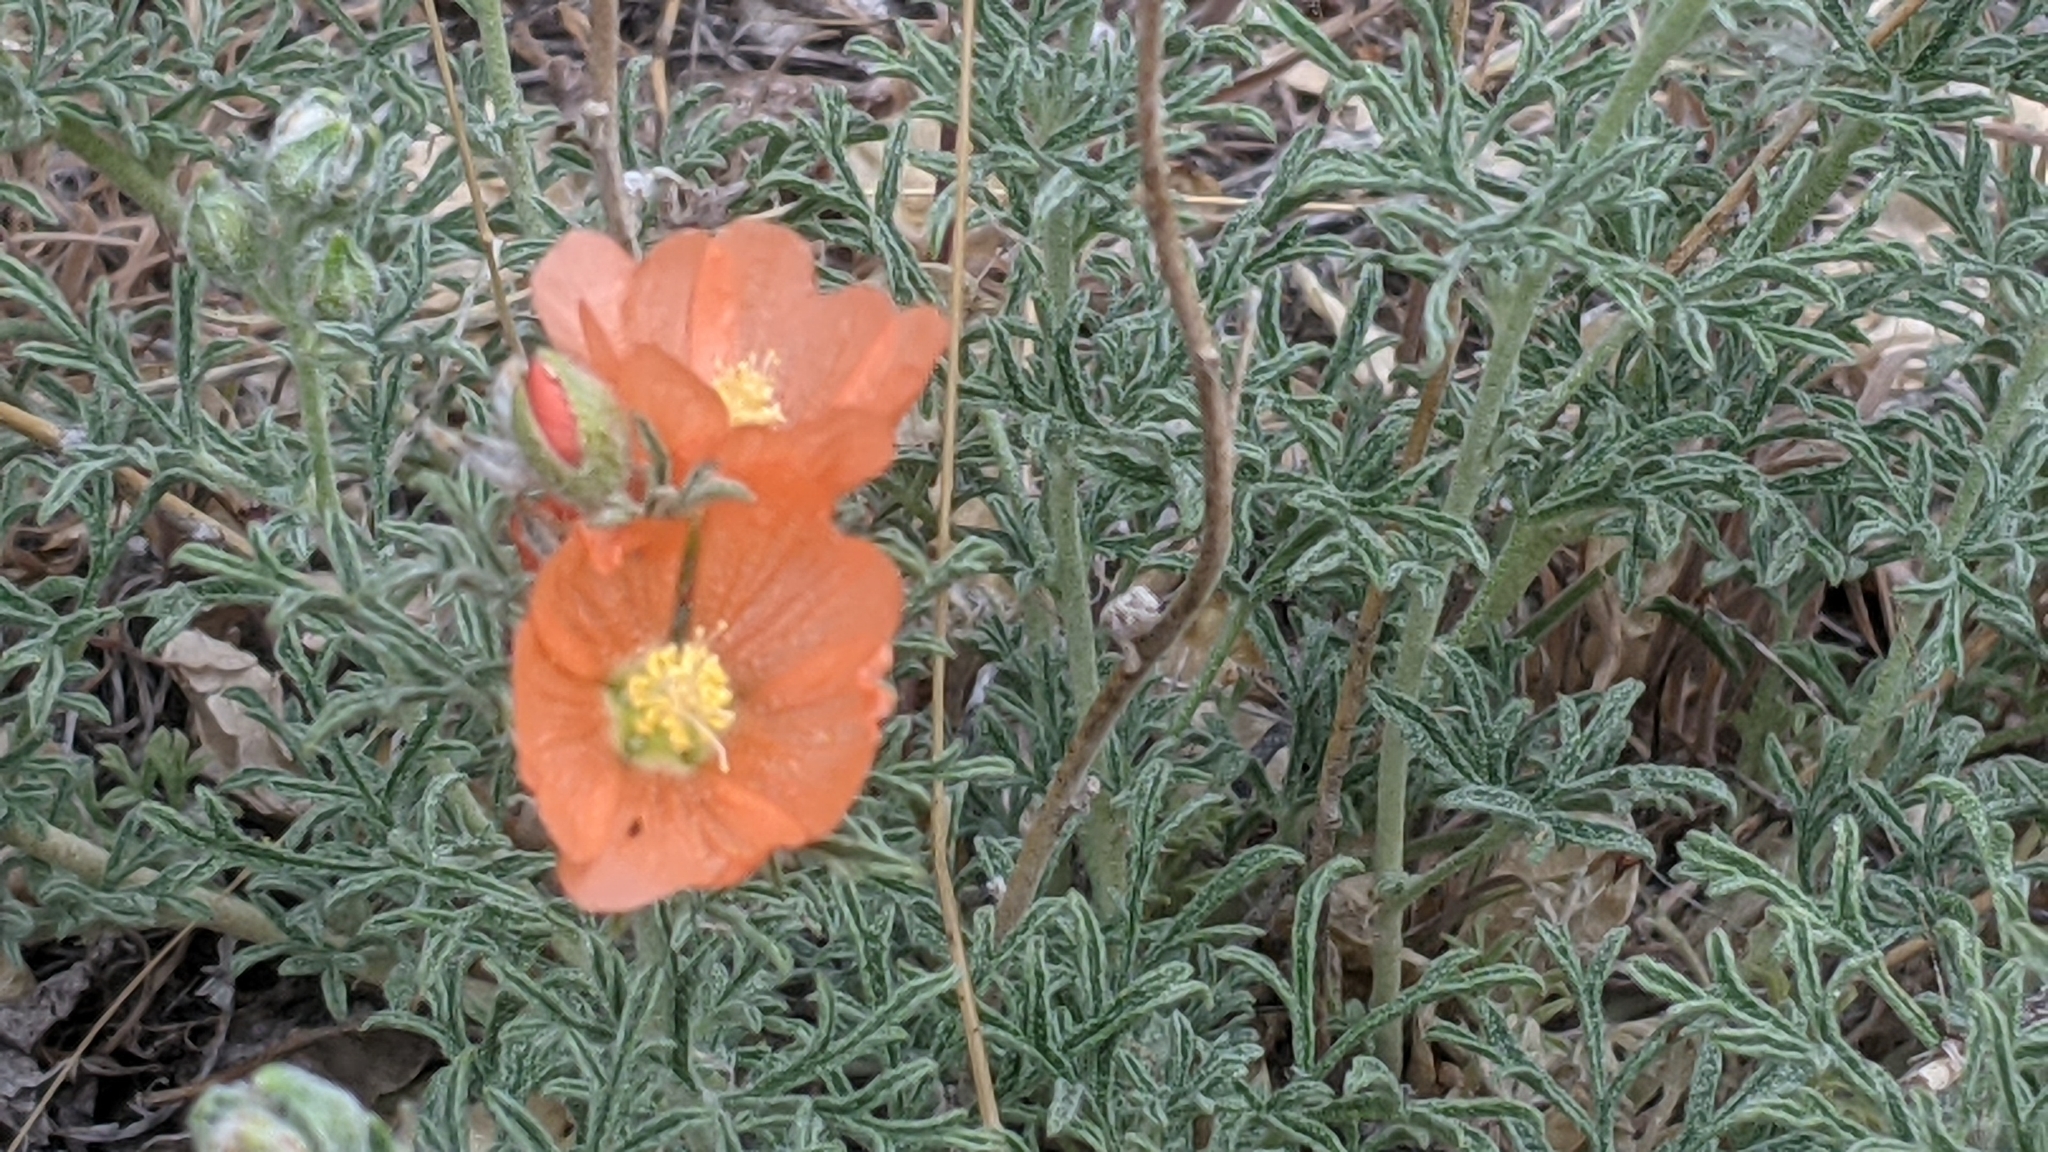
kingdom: Plantae
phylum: Tracheophyta
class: Magnoliopsida
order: Malvales
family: Malvaceae
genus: Sphaeralcea
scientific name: Sphaeralcea coccinea
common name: Moss-rose
